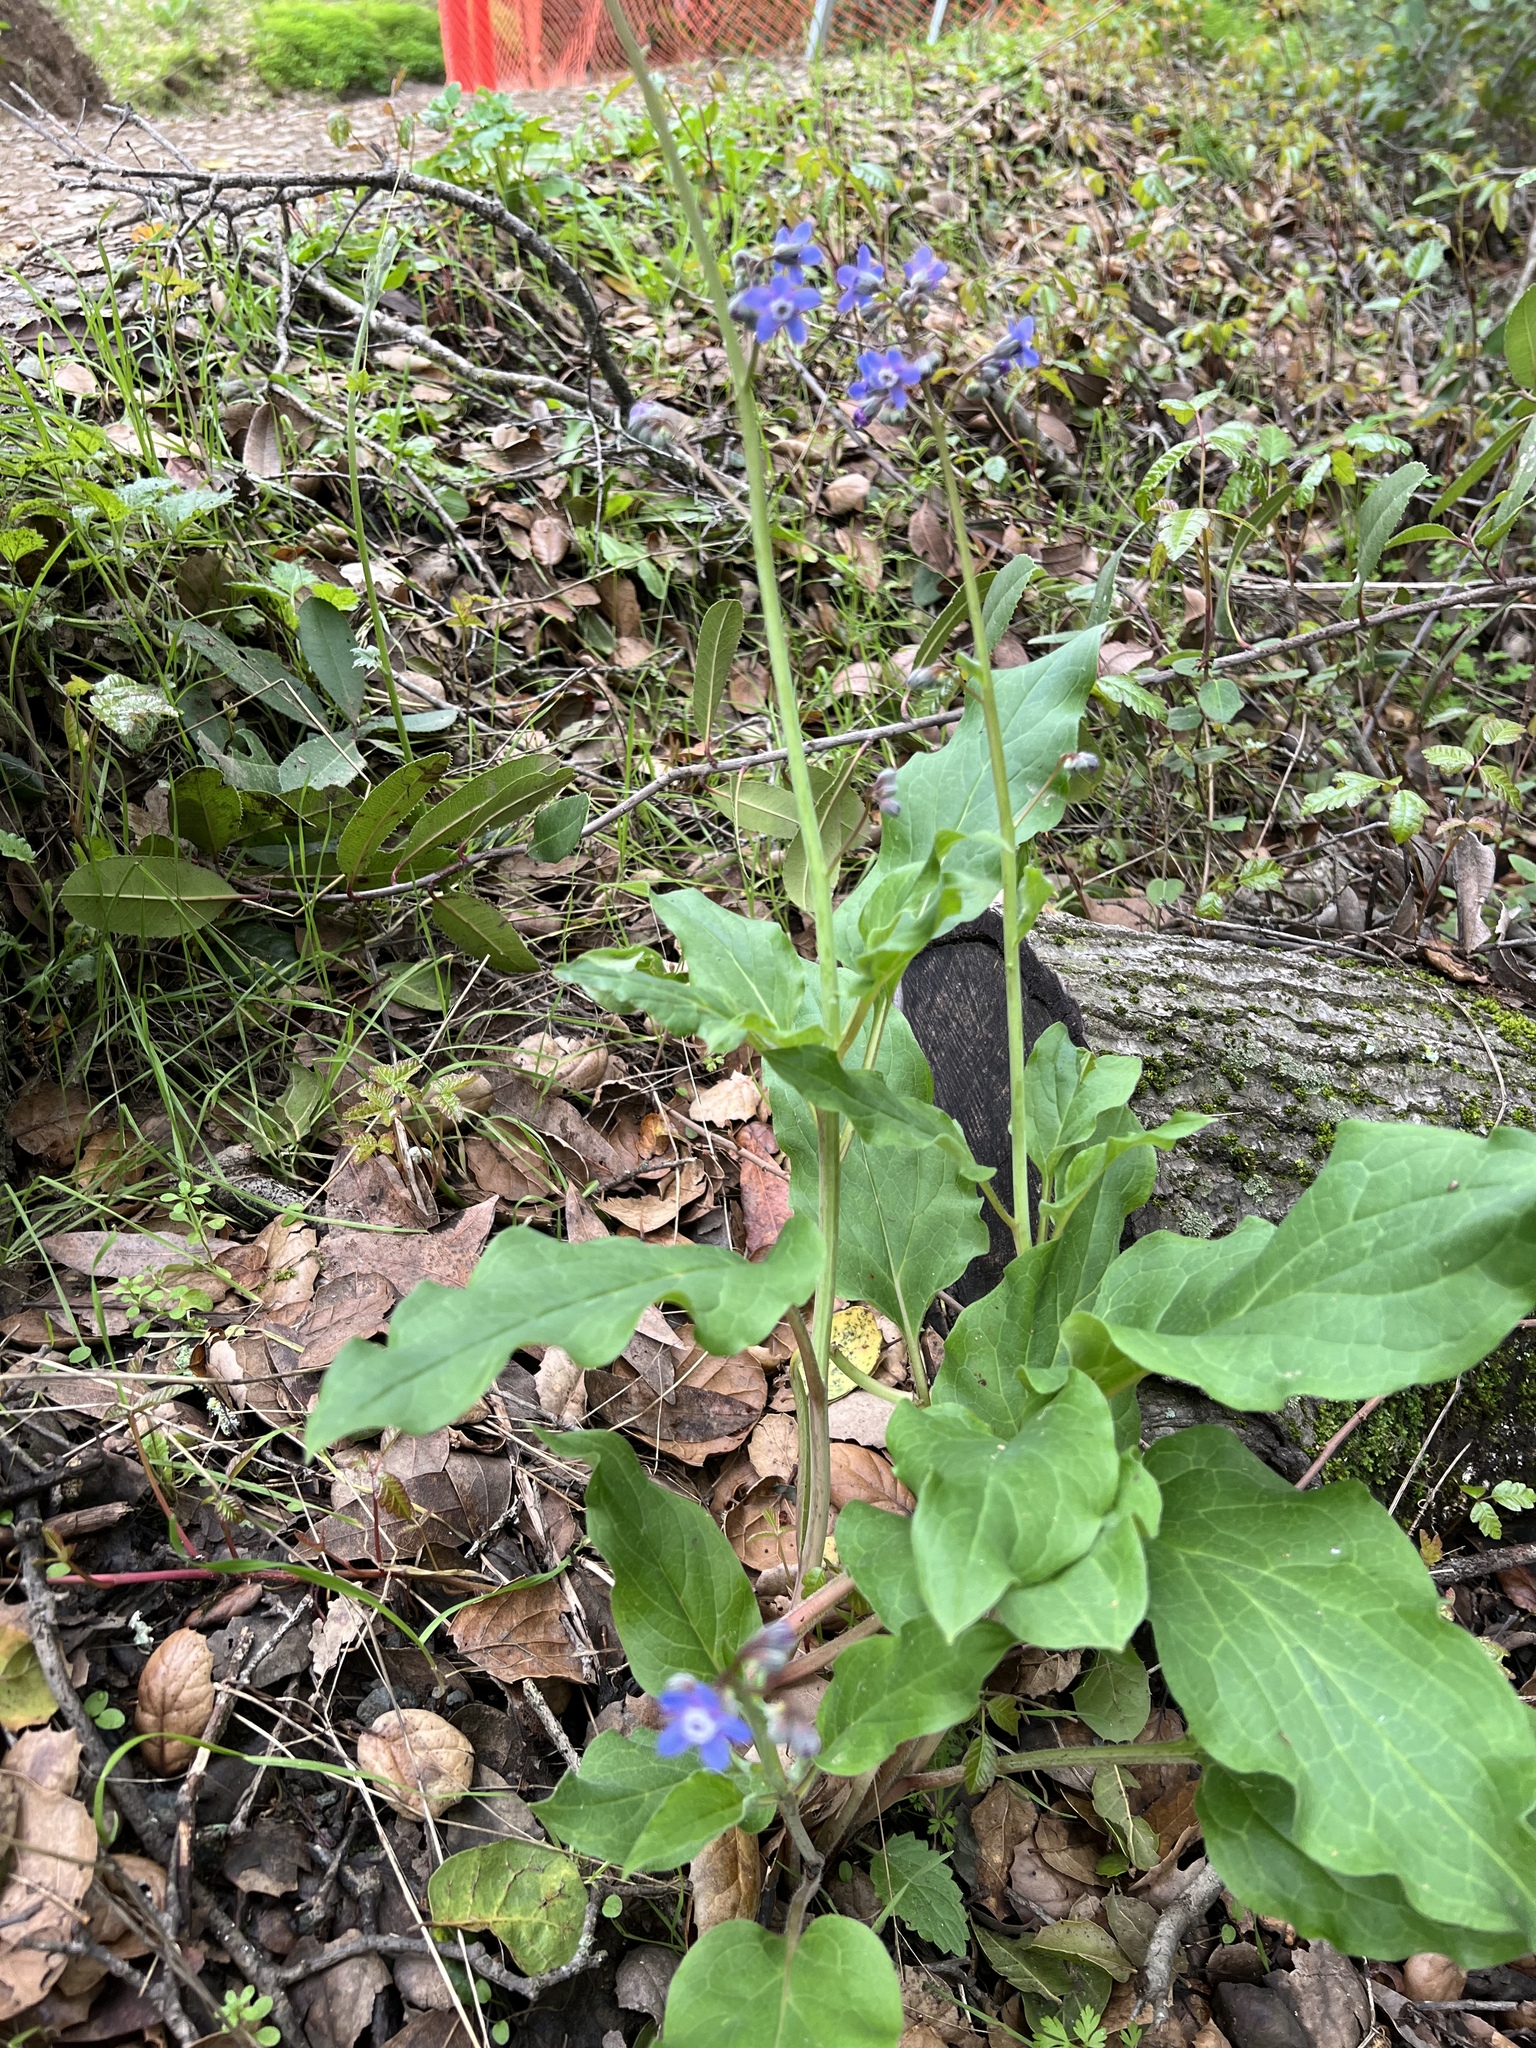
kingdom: Plantae
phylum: Tracheophyta
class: Magnoliopsida
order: Boraginales
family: Boraginaceae
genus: Adelinia
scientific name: Adelinia grande
